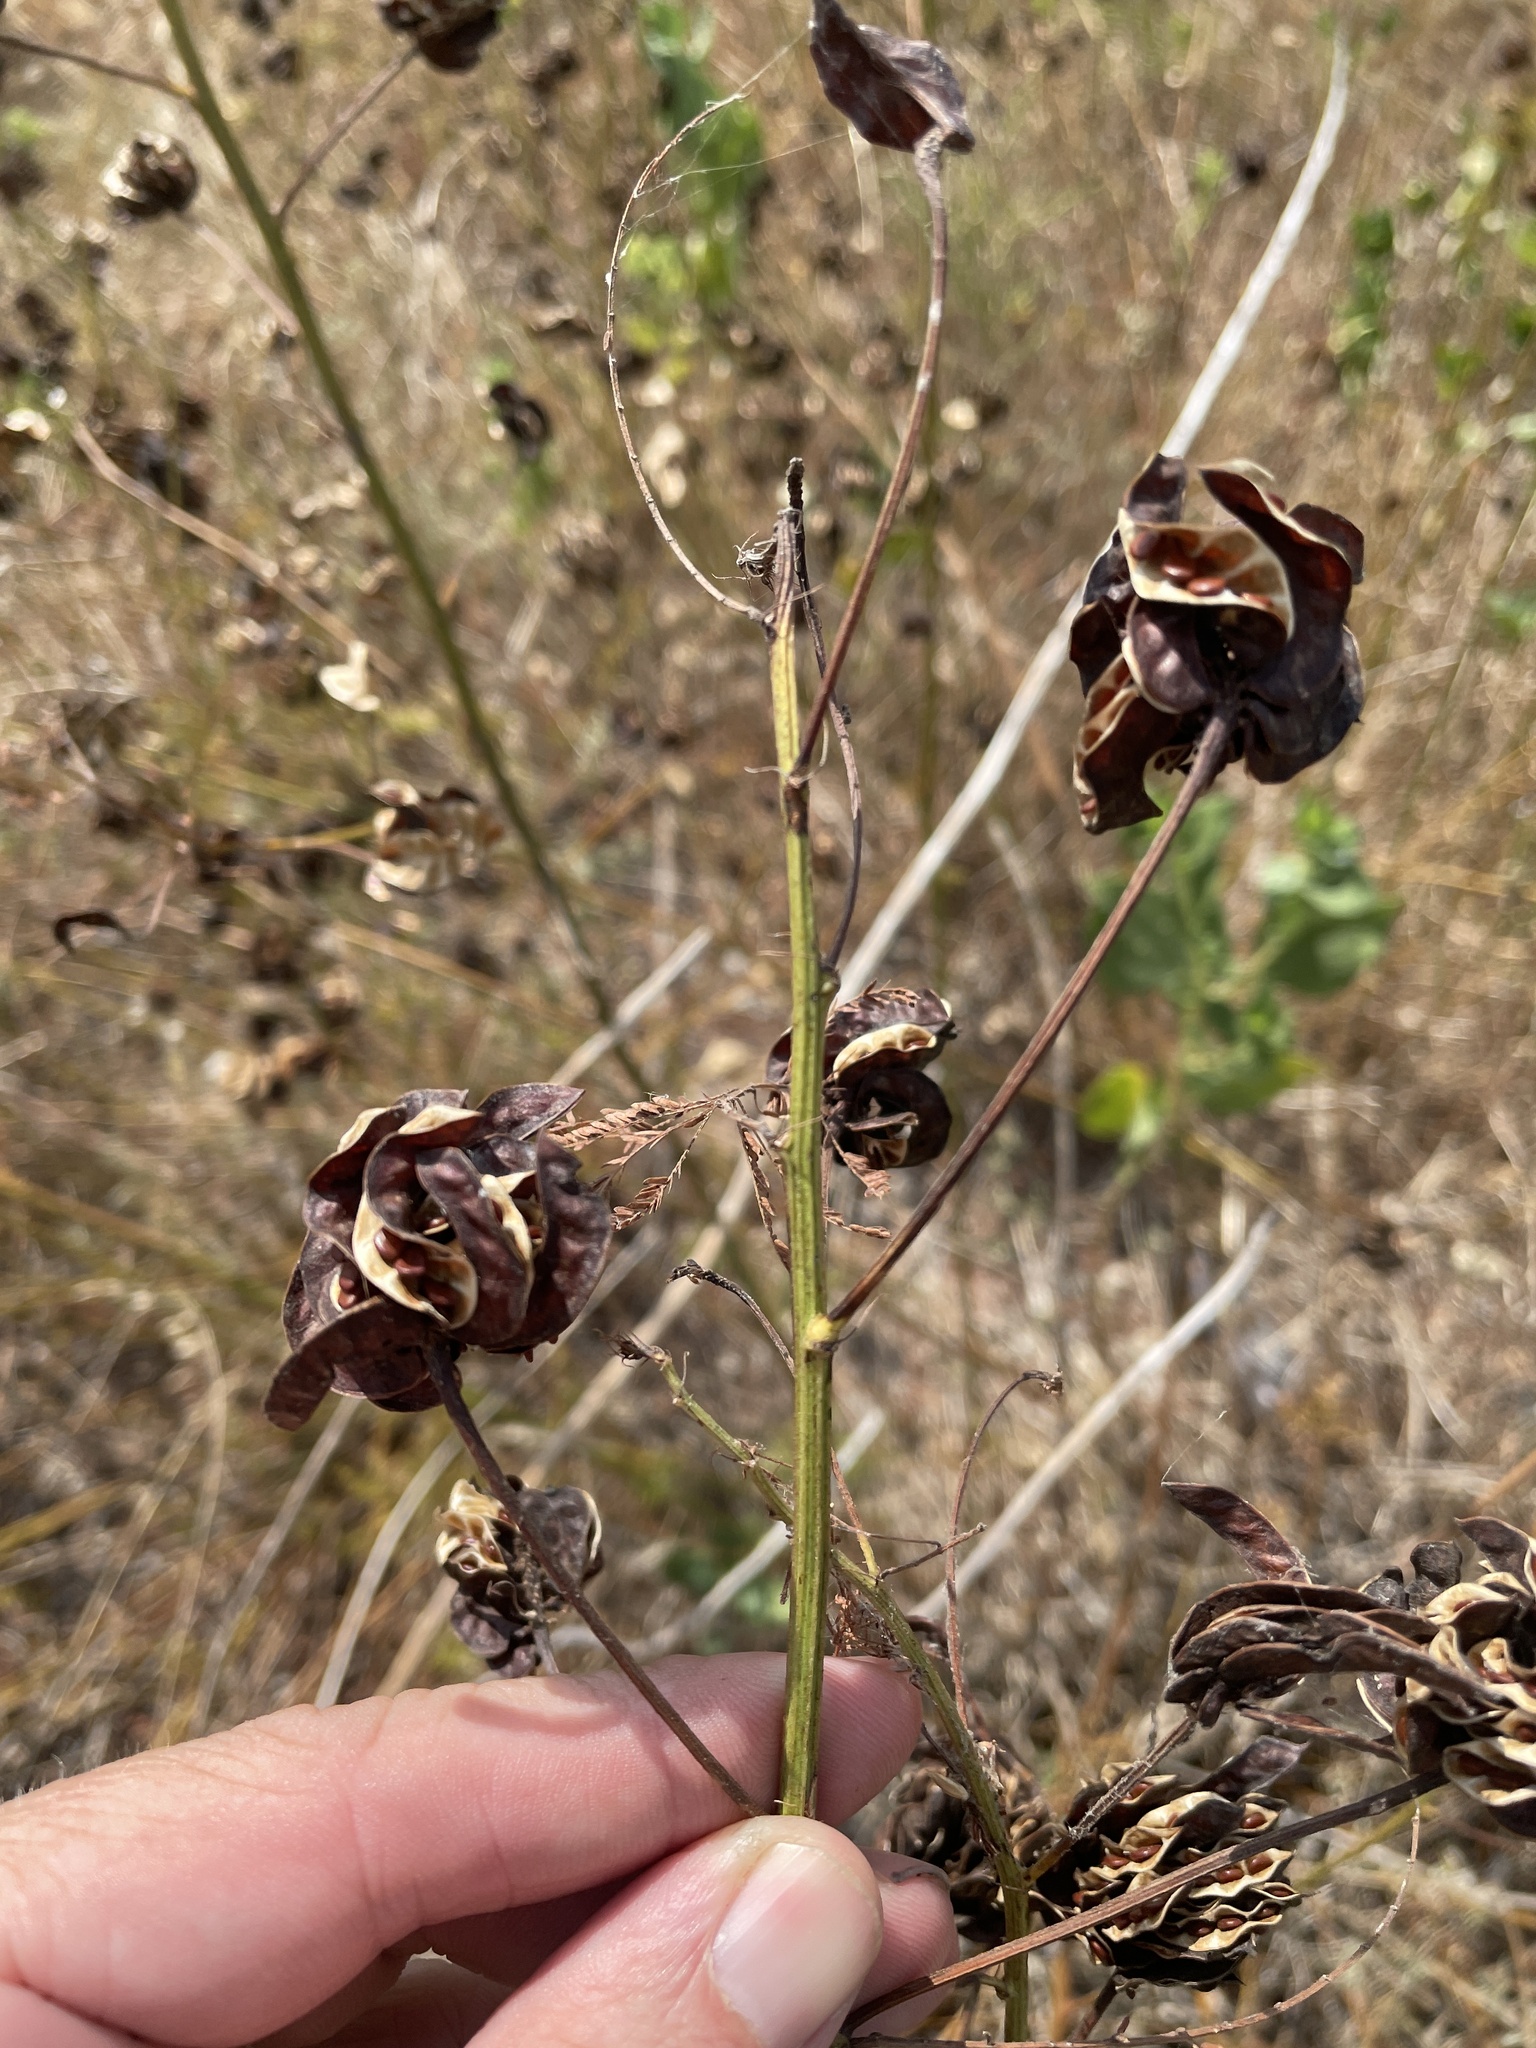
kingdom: Plantae
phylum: Tracheophyta
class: Magnoliopsida
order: Fabales
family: Fabaceae
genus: Desmanthus
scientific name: Desmanthus illinoensis
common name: Illinois bundle-flower
